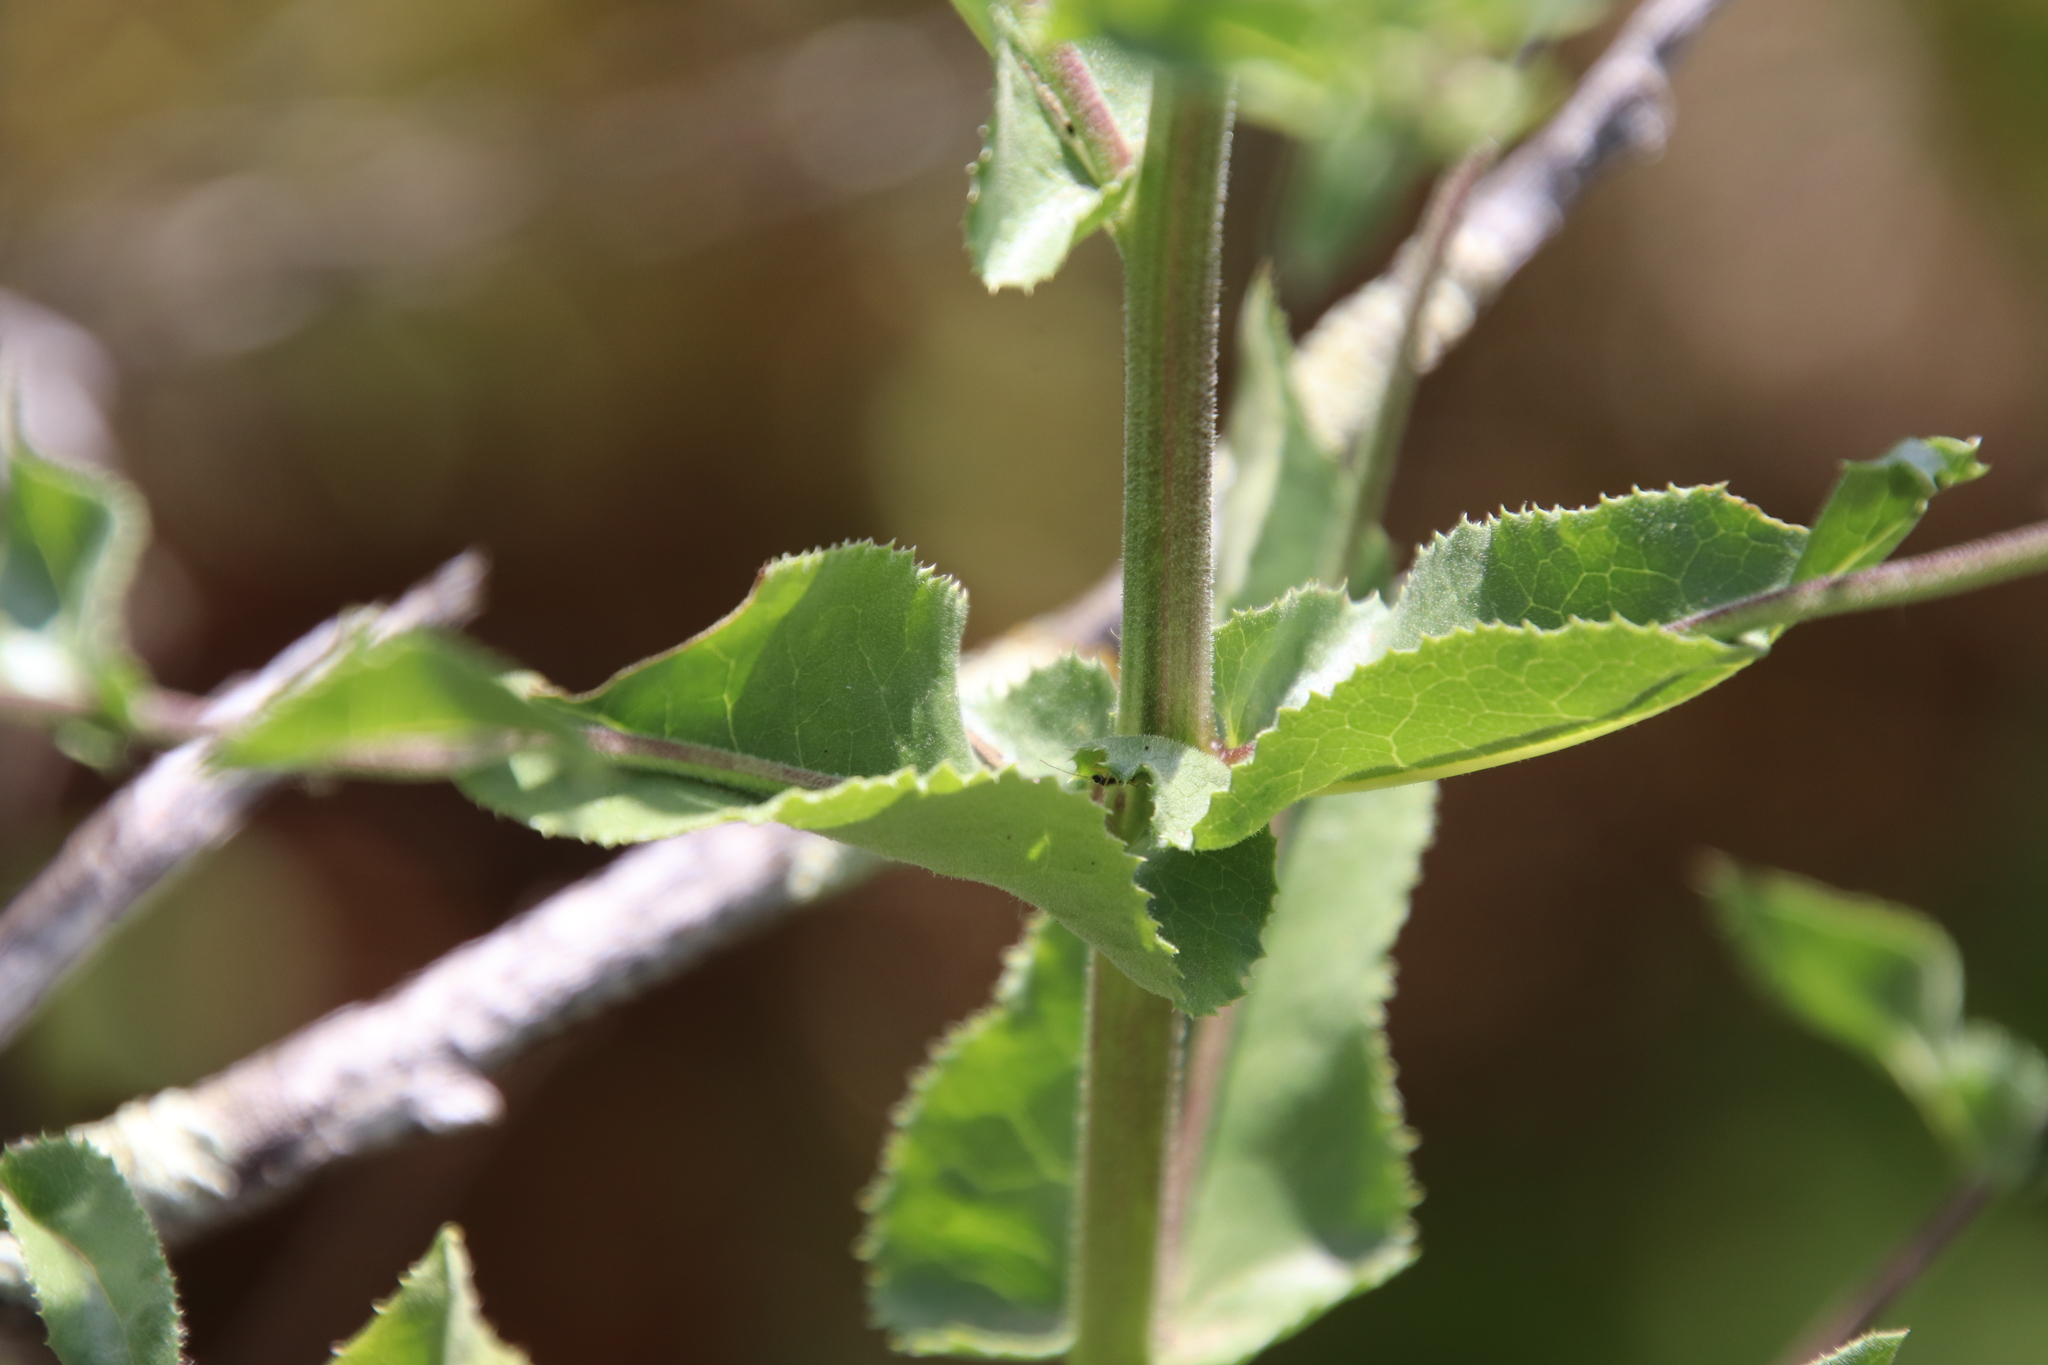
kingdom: Plantae
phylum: Tracheophyta
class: Magnoliopsida
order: Asterales
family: Asteraceae
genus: Acourtia
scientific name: Acourtia microcephala
